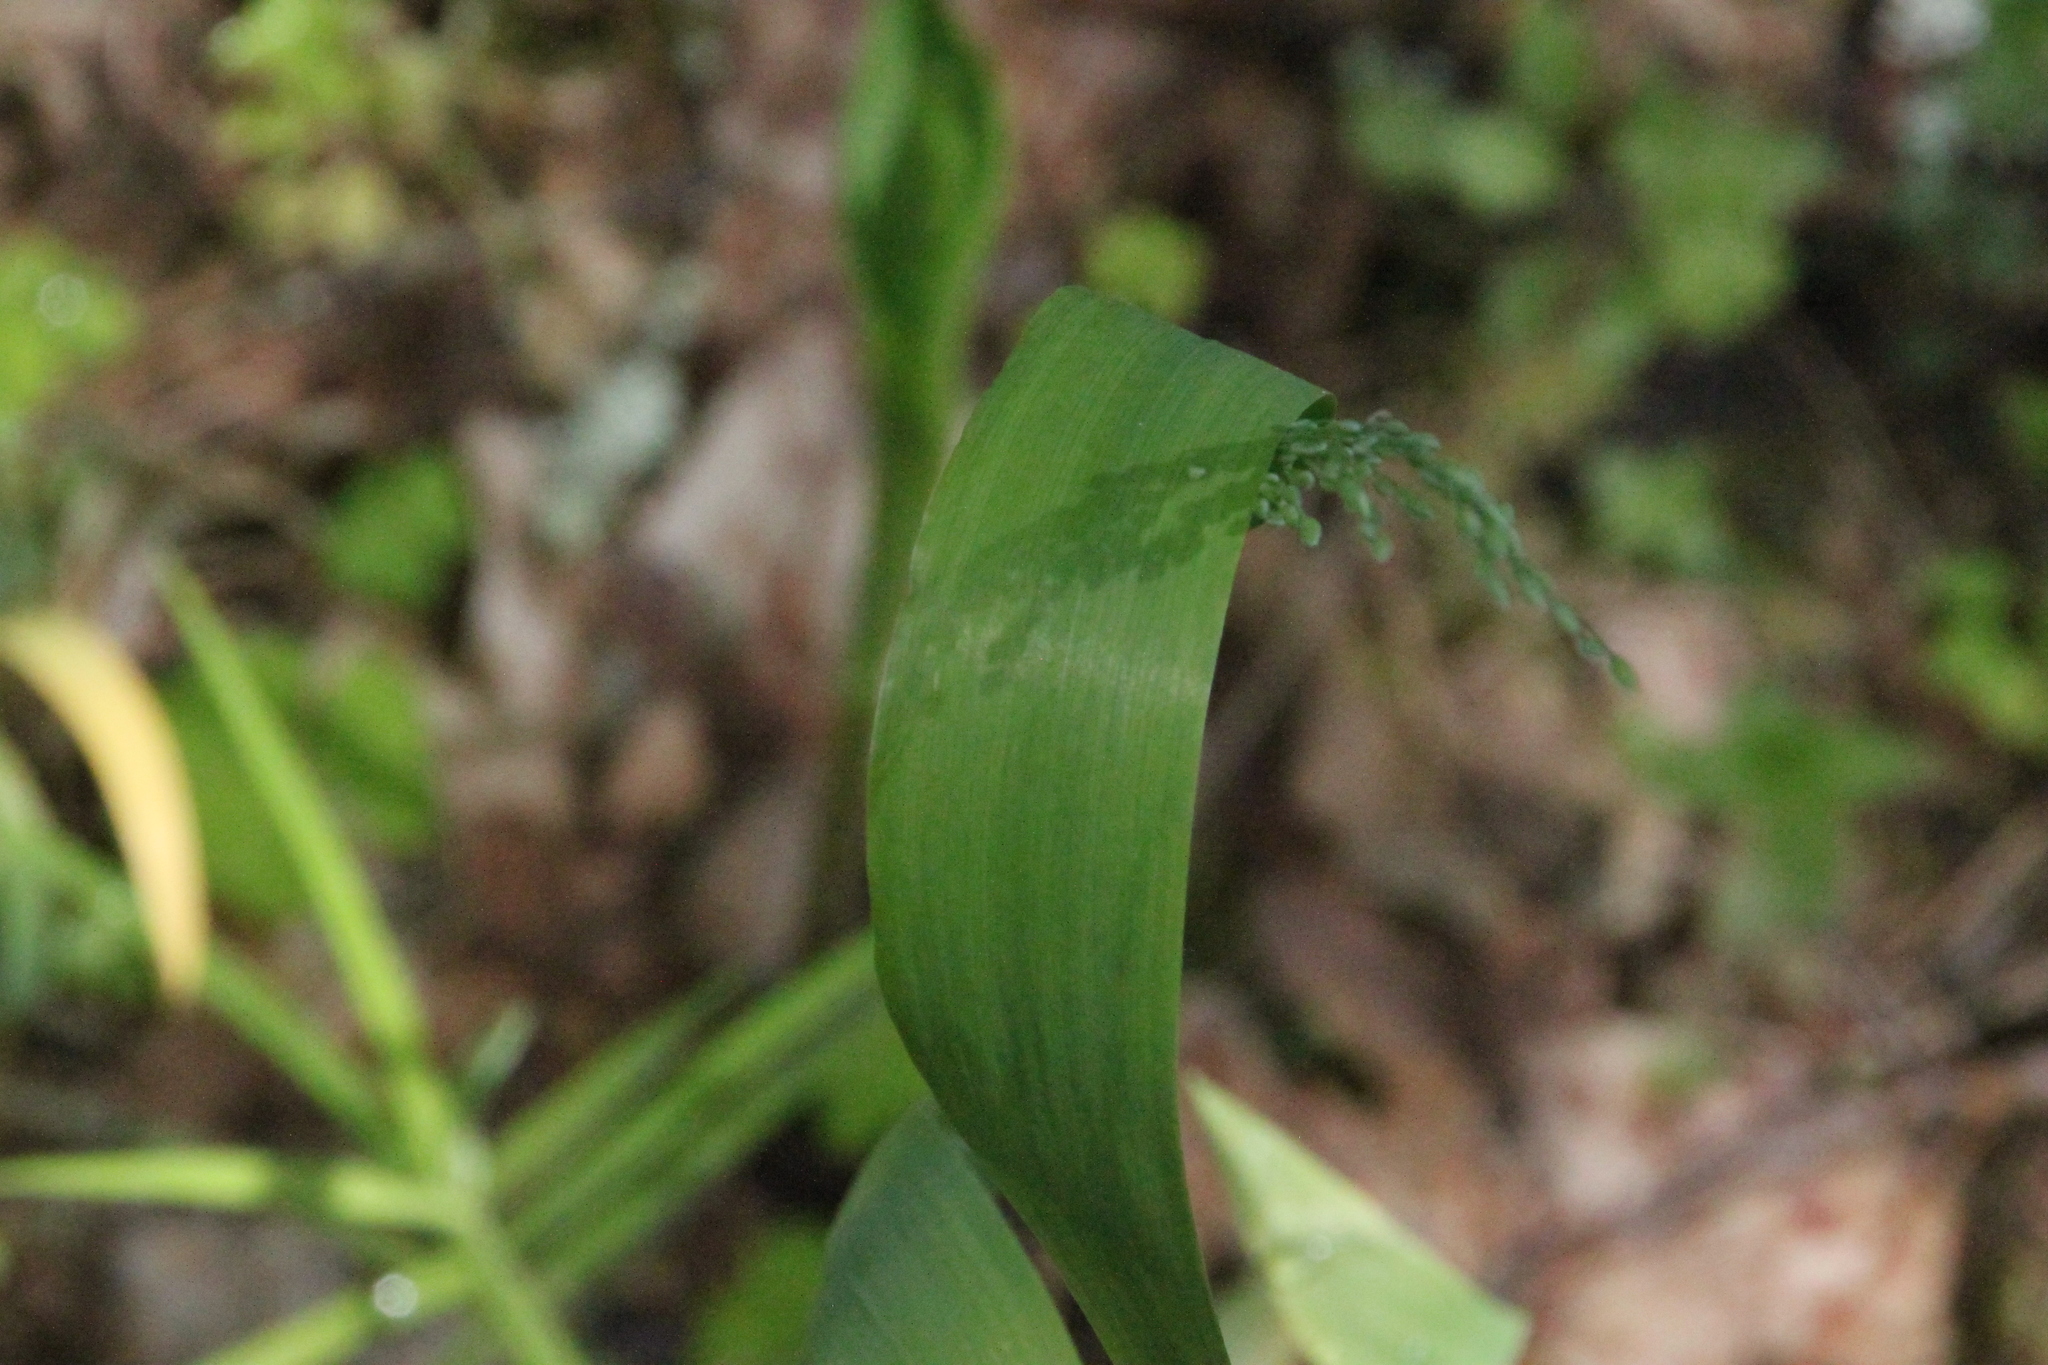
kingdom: Plantae
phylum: Tracheophyta
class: Liliopsida
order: Poales
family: Poaceae
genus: Milium
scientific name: Milium effusum
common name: Wood millet
